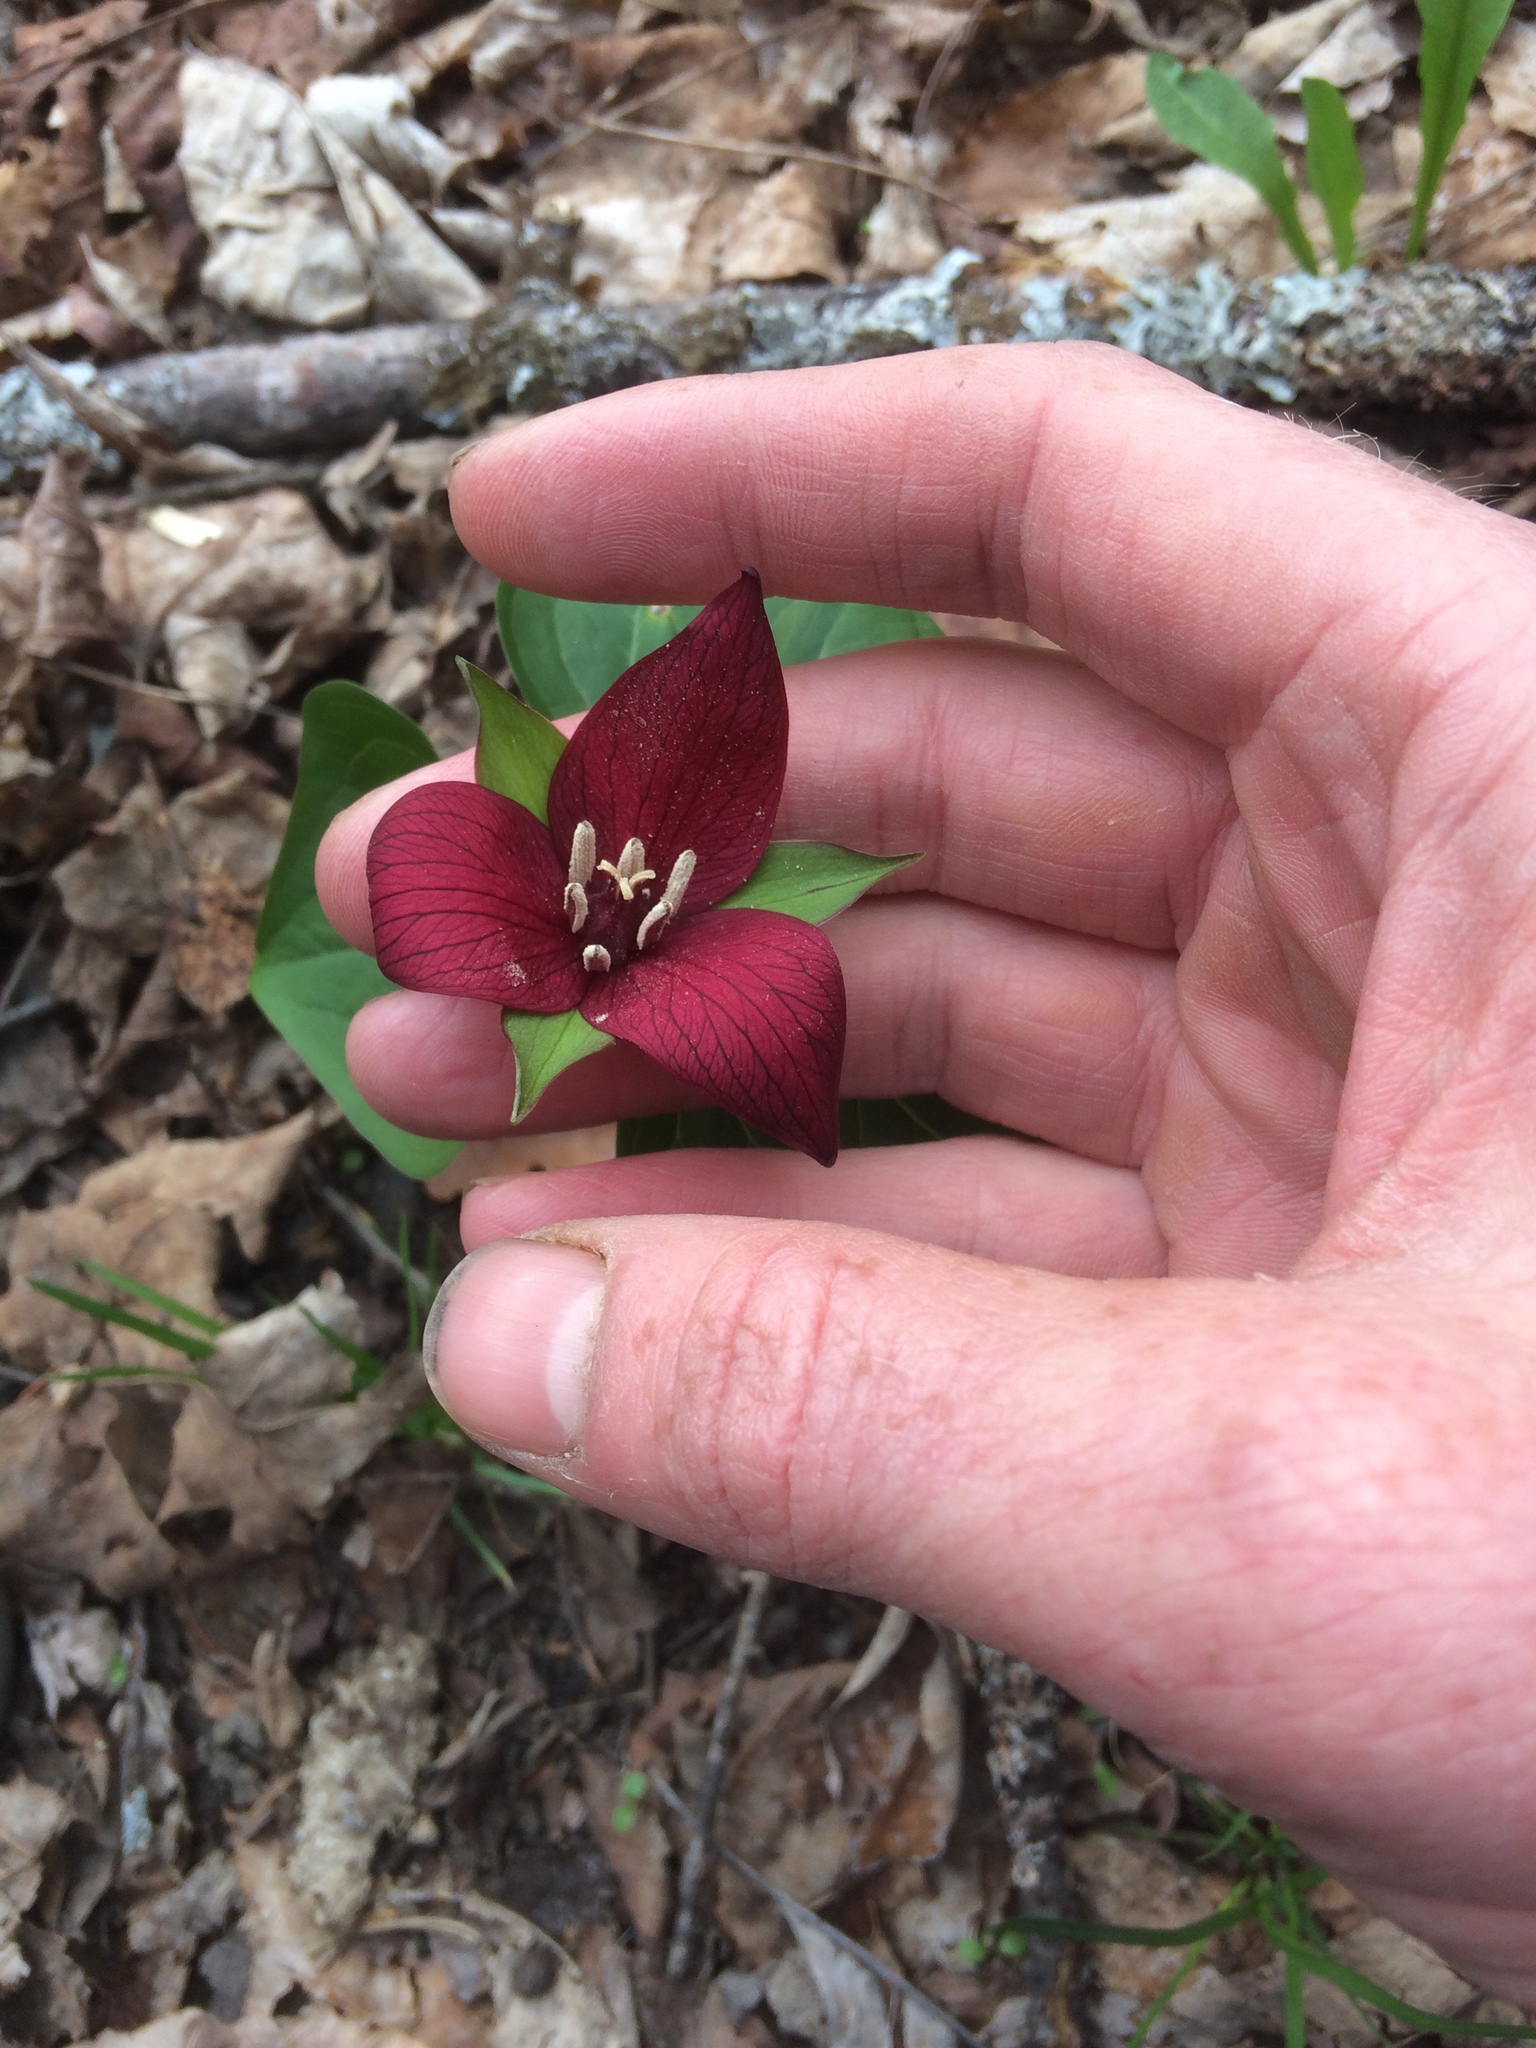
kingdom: Plantae
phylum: Tracheophyta
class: Liliopsida
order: Liliales
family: Melanthiaceae
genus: Trillium
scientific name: Trillium erectum
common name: Purple trillium
